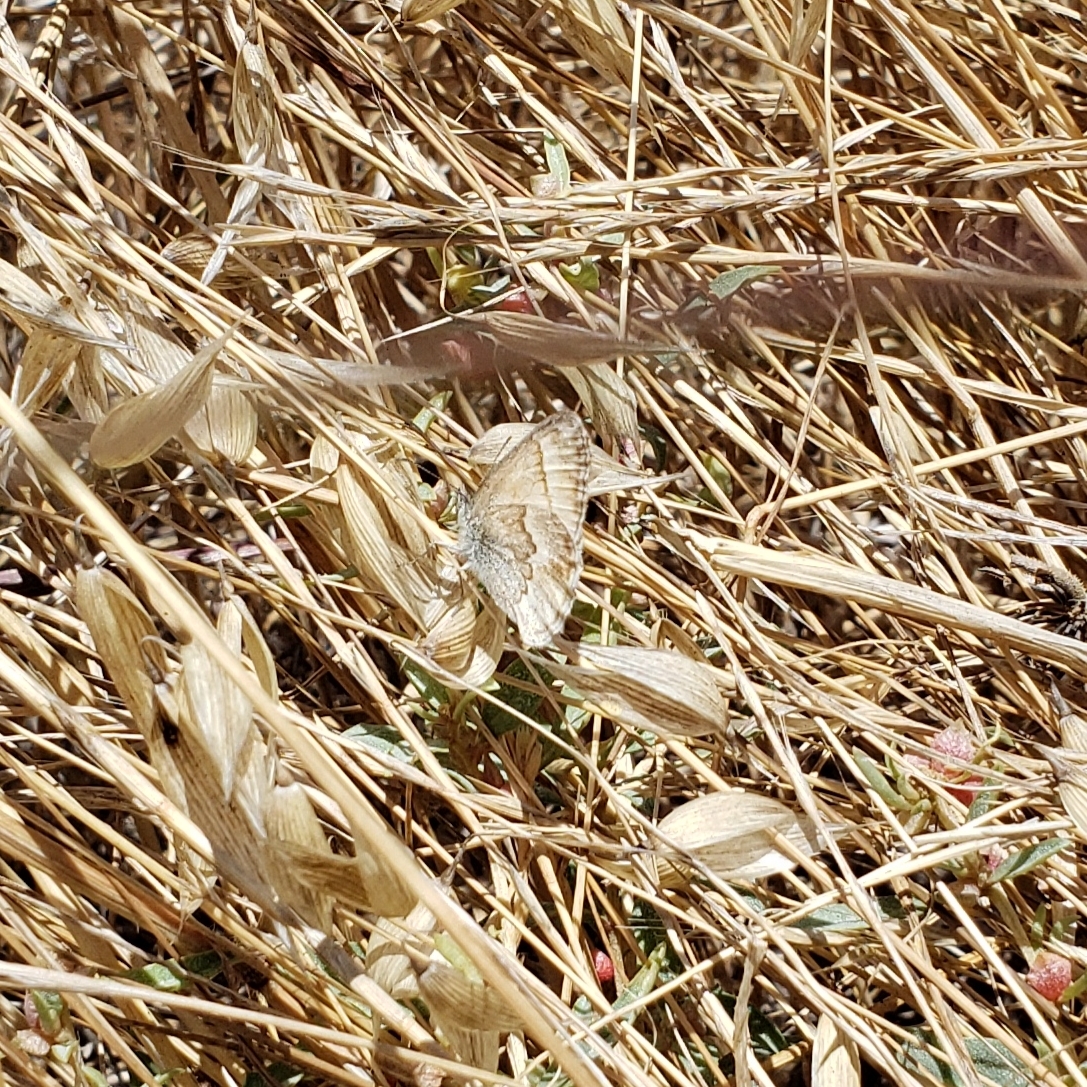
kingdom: Animalia
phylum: Arthropoda
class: Insecta
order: Lepidoptera
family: Nymphalidae
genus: Coenonympha
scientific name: Coenonympha california
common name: Common ringlet
